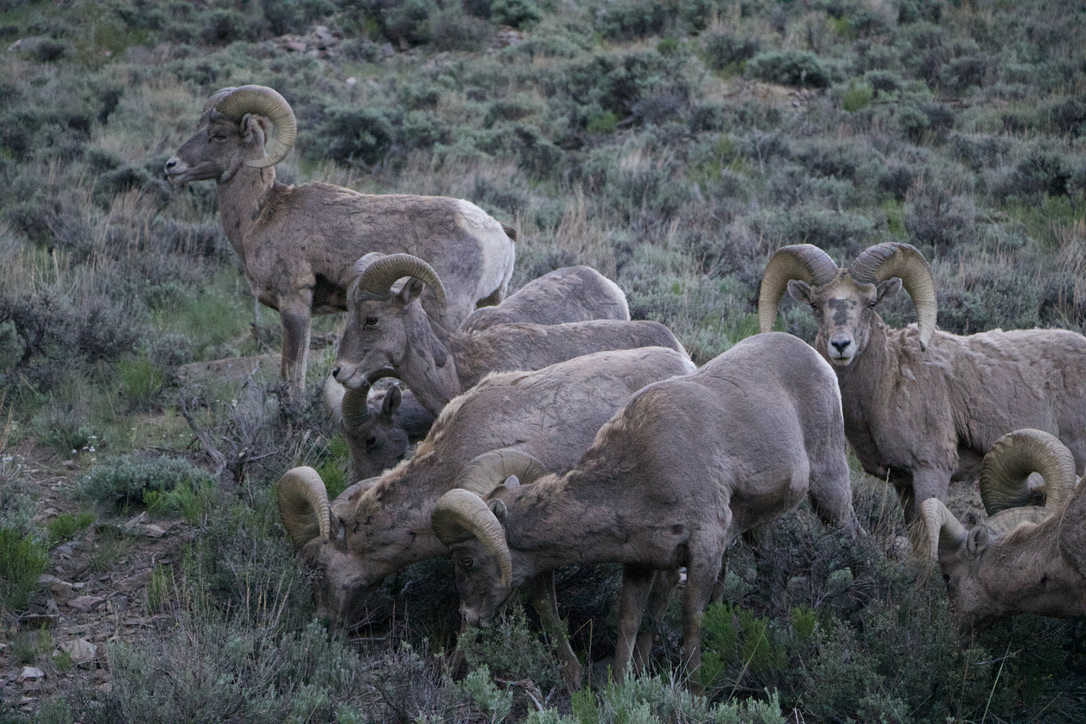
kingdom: Animalia
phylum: Chordata
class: Mammalia
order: Artiodactyla
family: Bovidae
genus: Ovis
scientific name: Ovis canadensis
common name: Bighorn sheep
